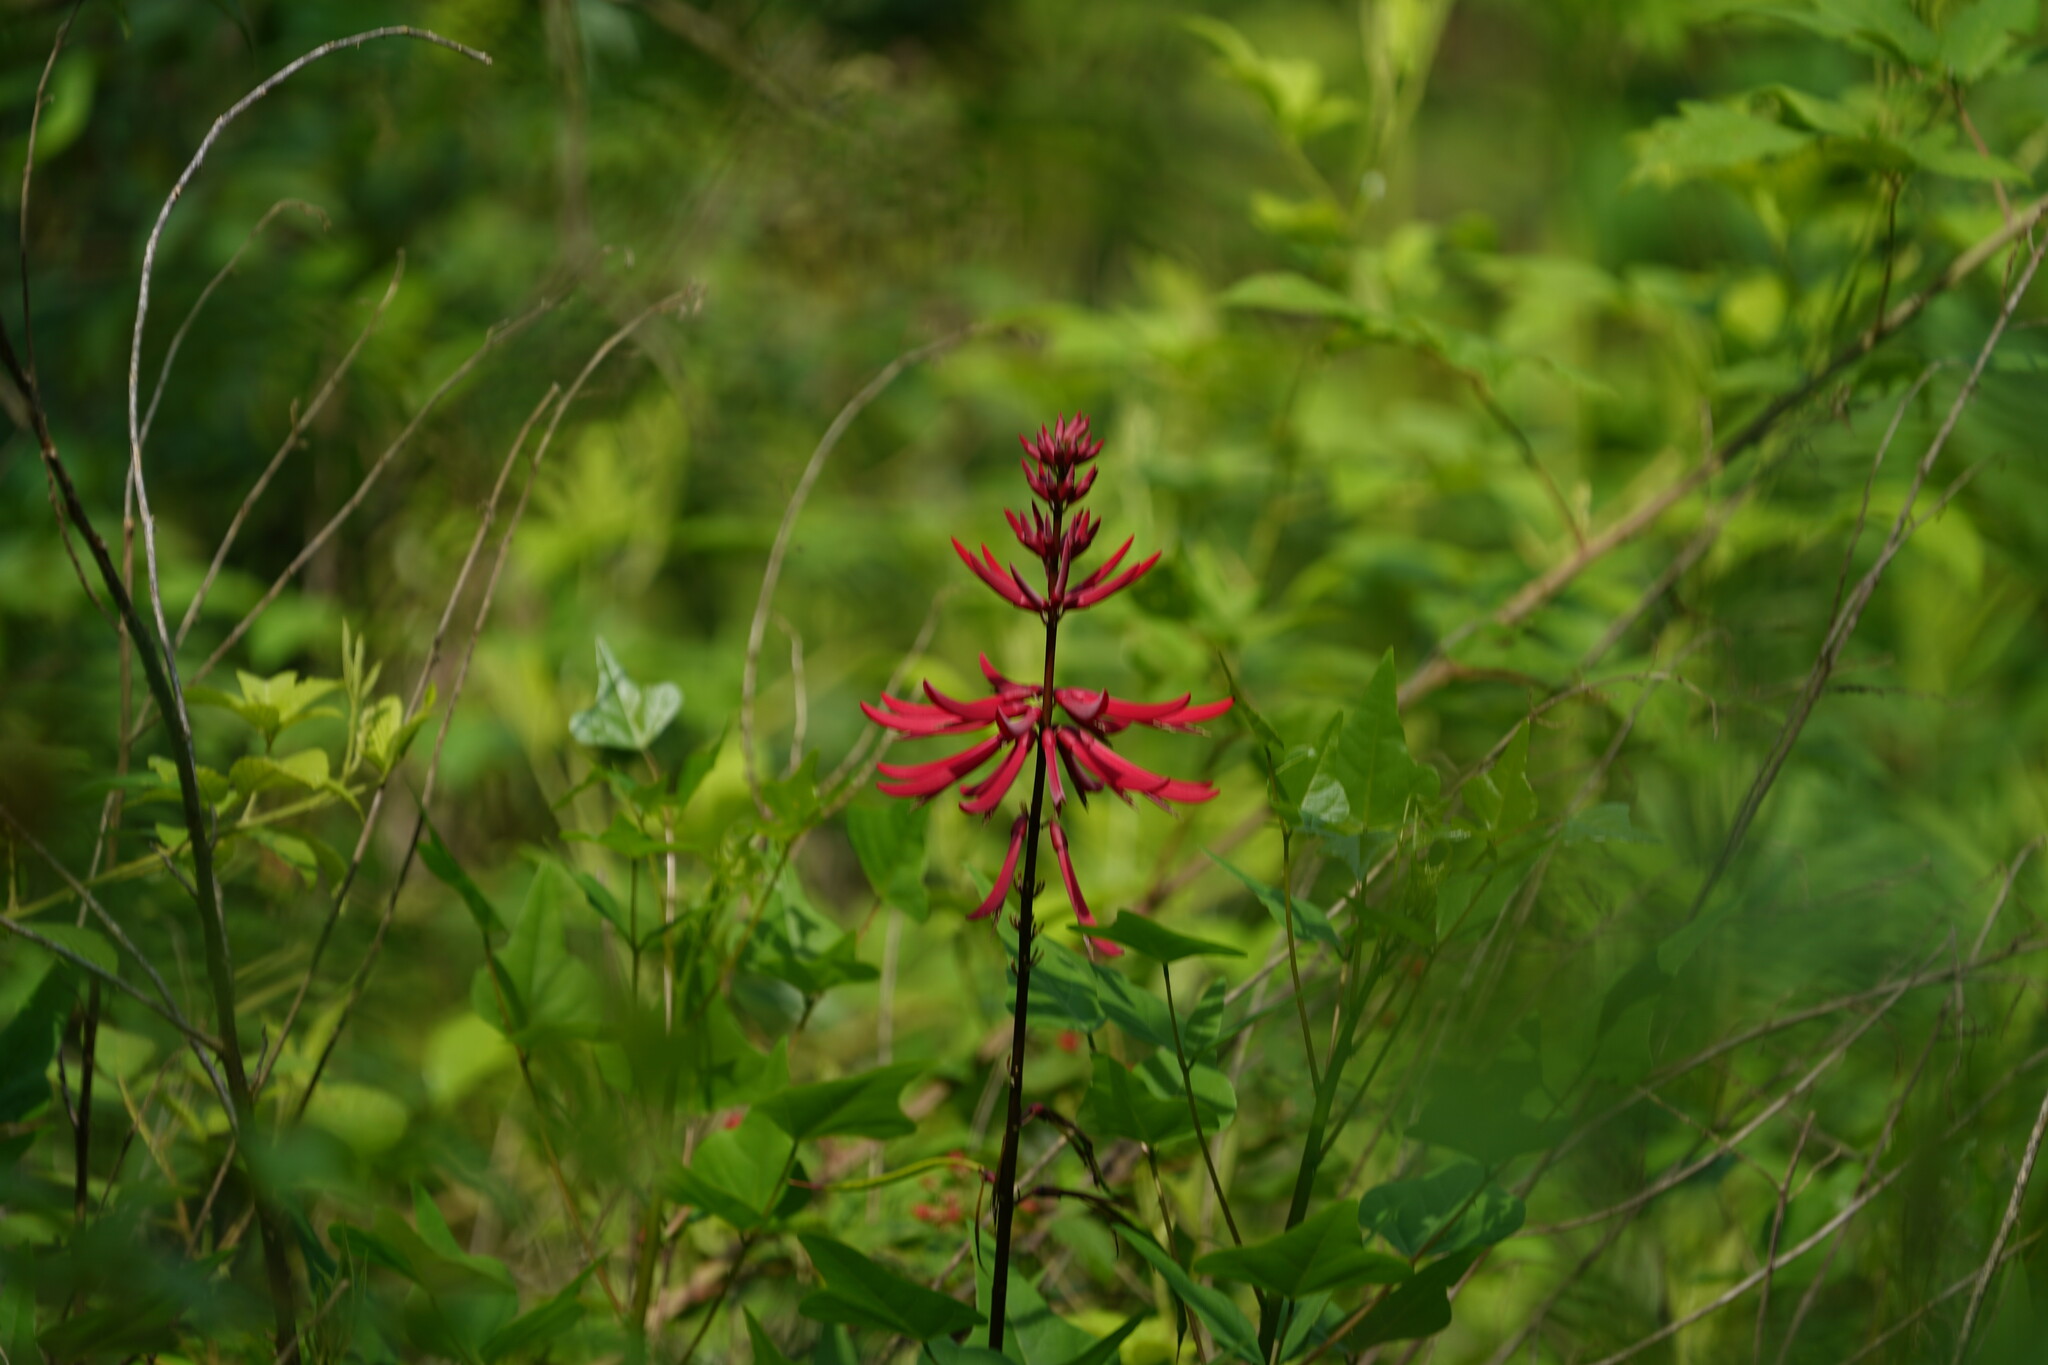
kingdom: Plantae
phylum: Tracheophyta
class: Magnoliopsida
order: Fabales
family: Fabaceae
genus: Erythrina
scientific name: Erythrina herbacea
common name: Coral-bean
